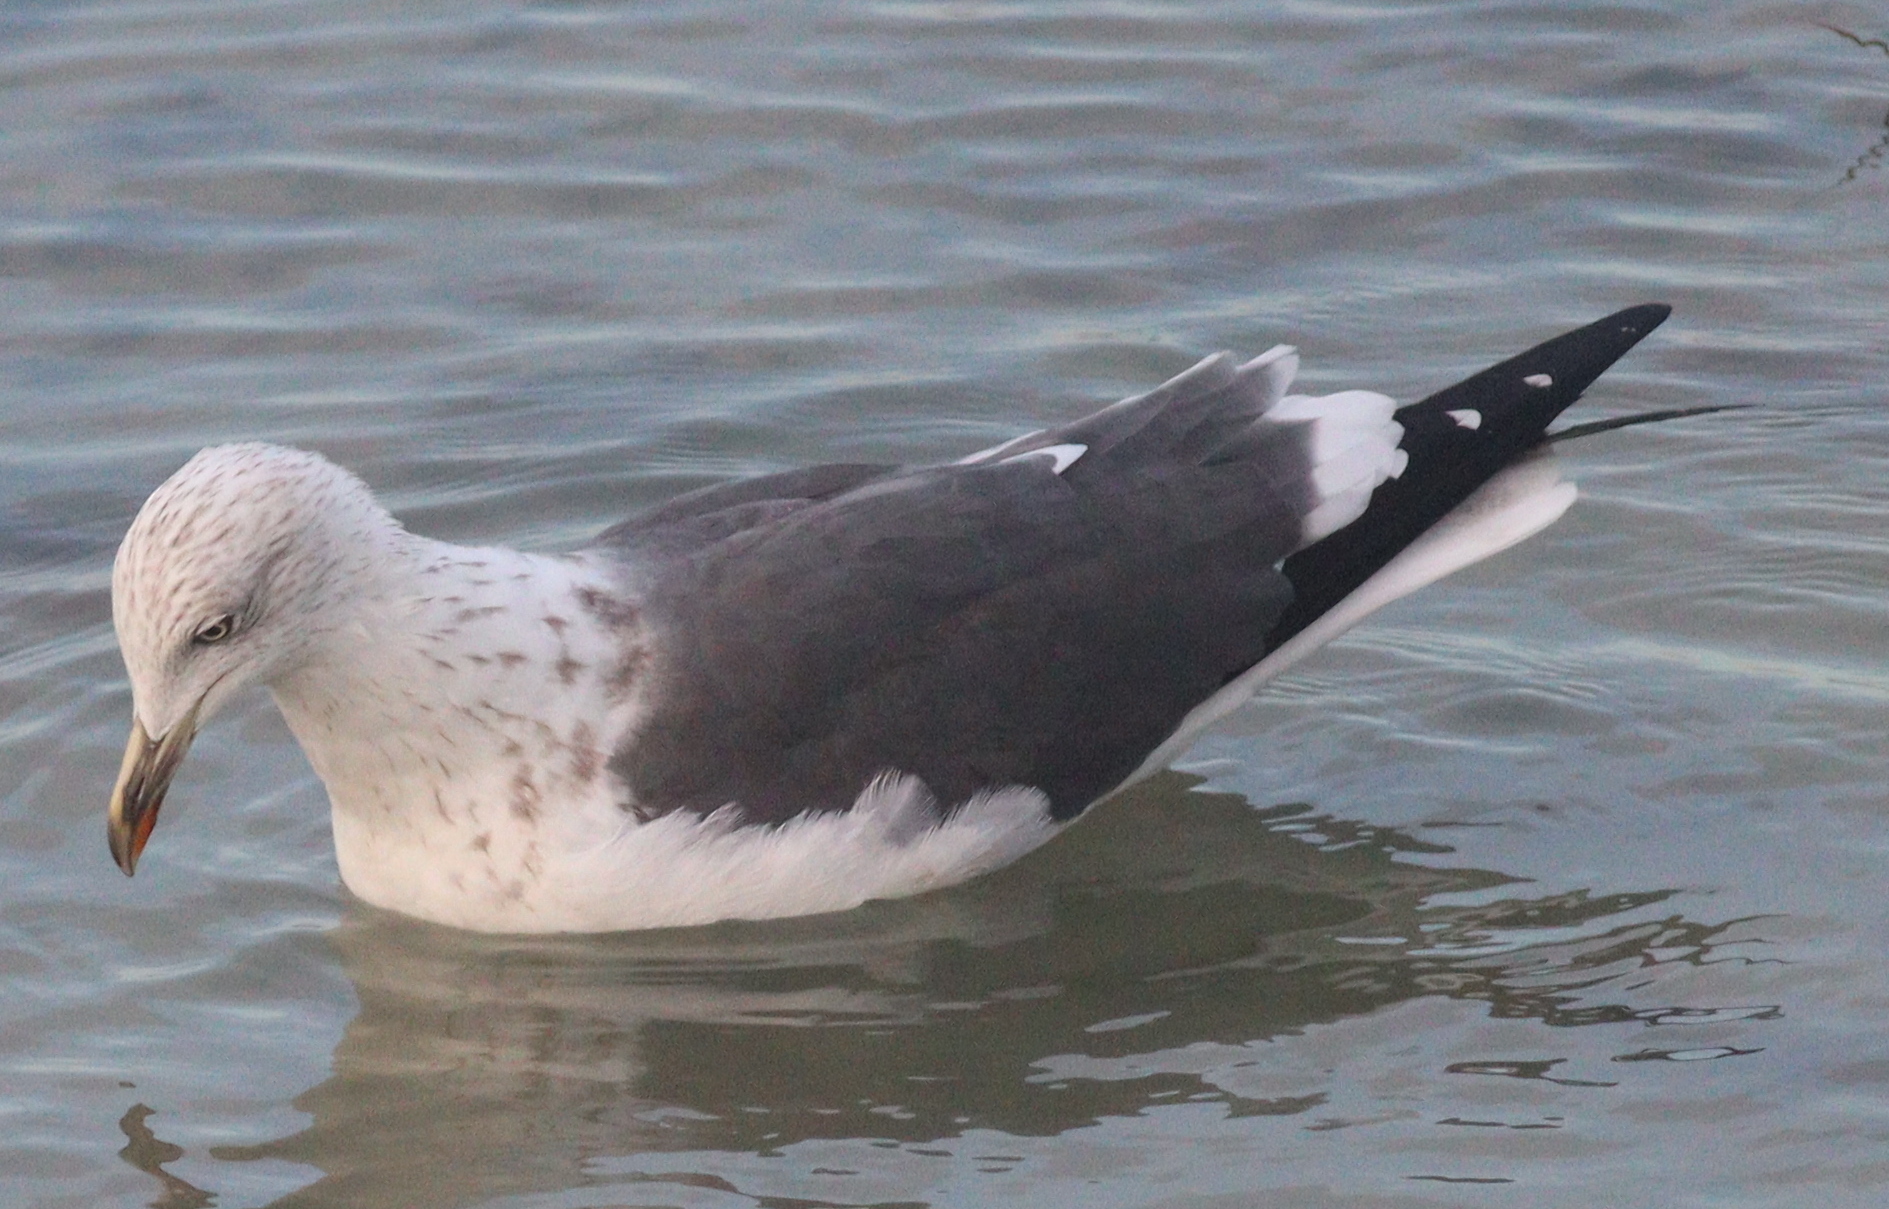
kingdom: Animalia
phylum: Chordata
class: Aves
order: Charadriiformes
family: Laridae
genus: Larus
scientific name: Larus fuscus
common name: Lesser black-backed gull
